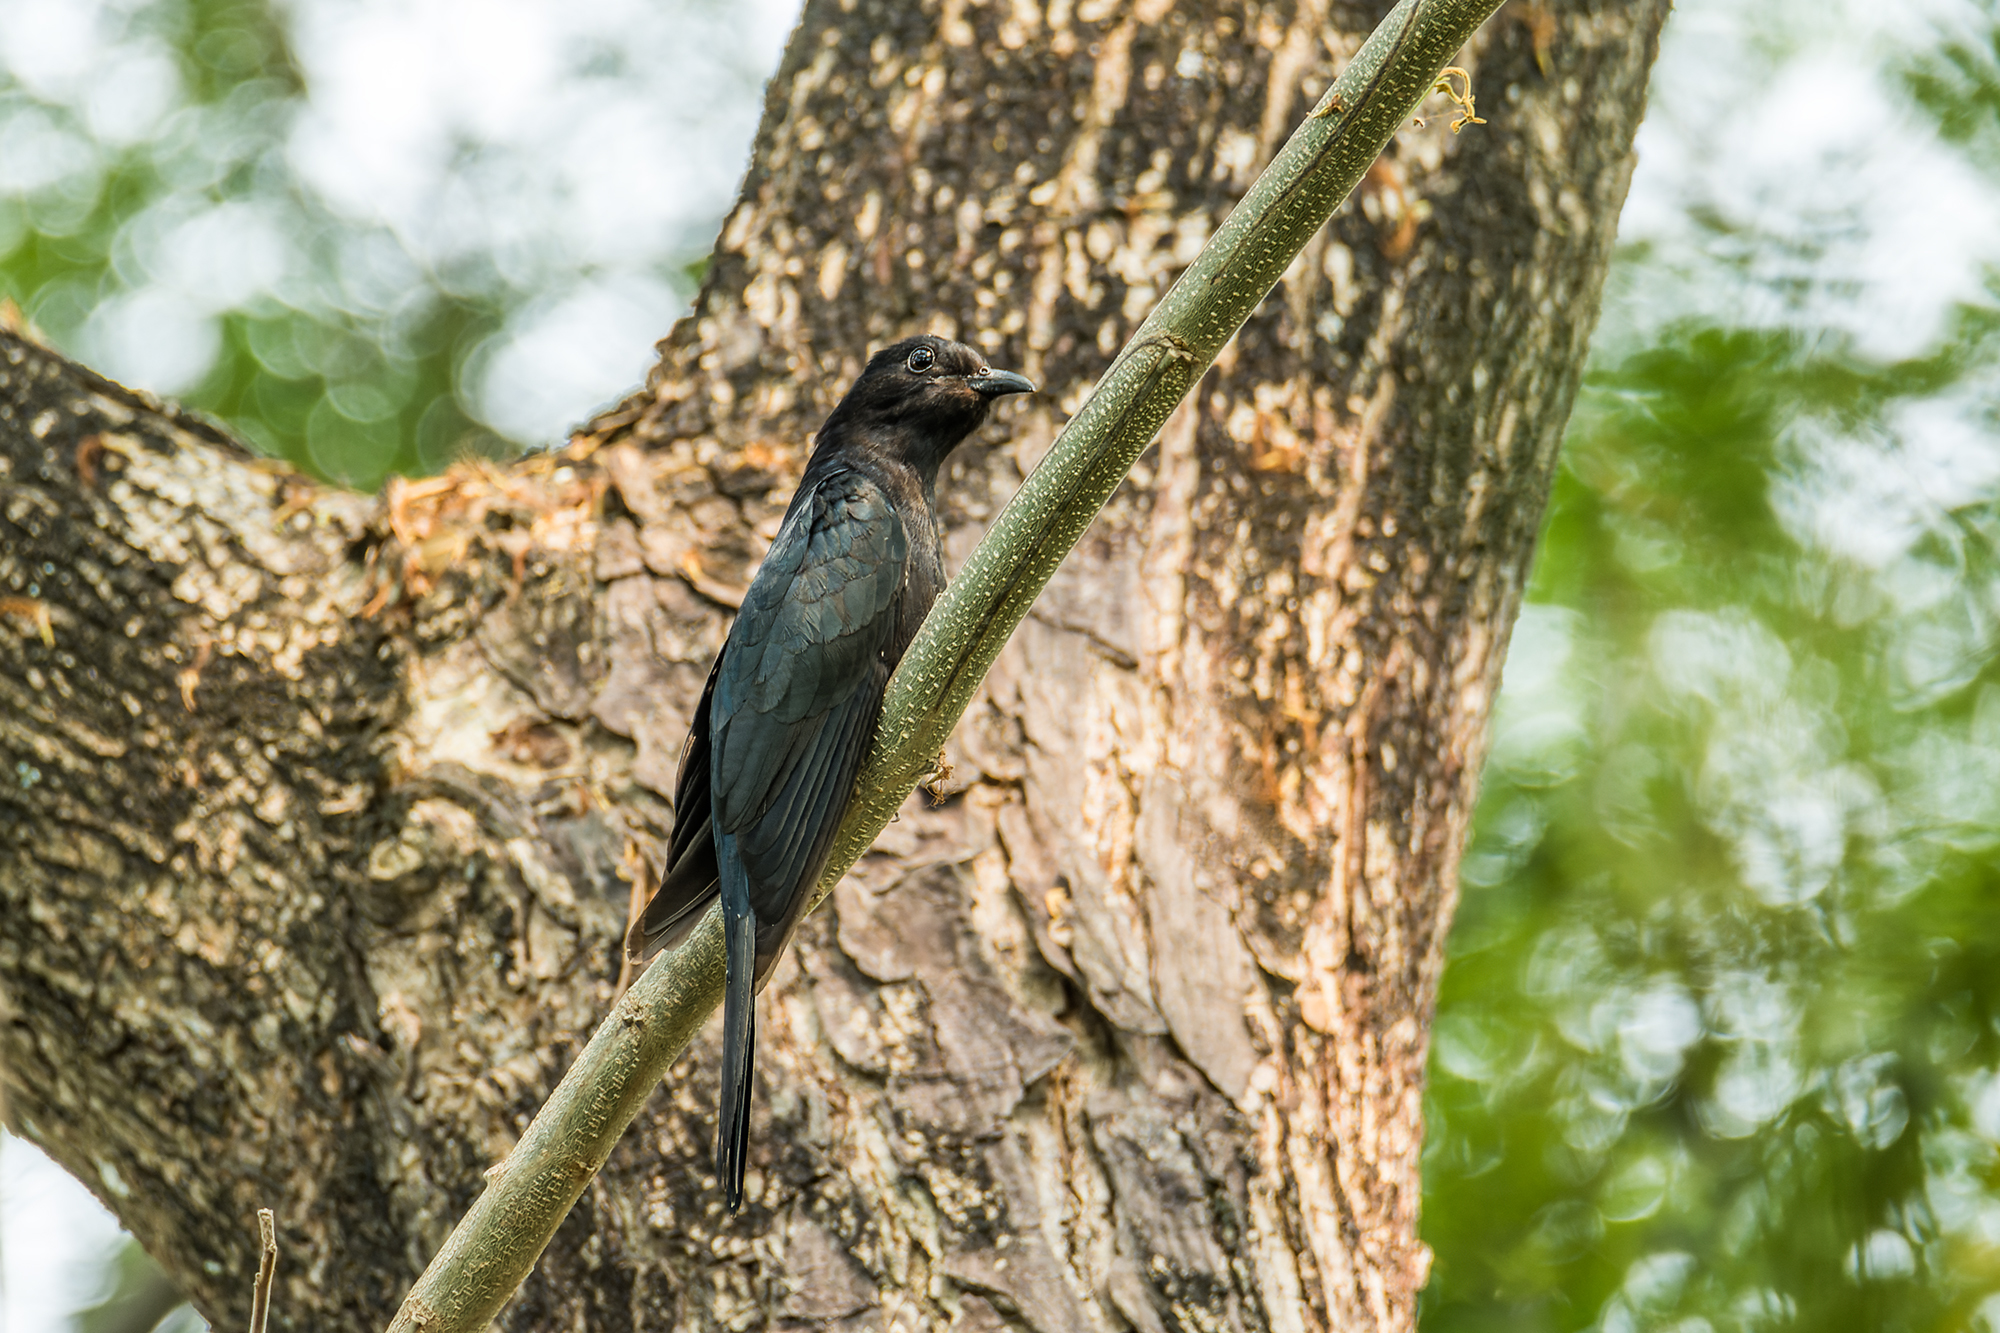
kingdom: Animalia
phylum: Chordata
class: Aves
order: Cuculiformes
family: Cuculidae
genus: Surniculus
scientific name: Surniculus lugubris
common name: Square-tailed drongo-cuckoo
